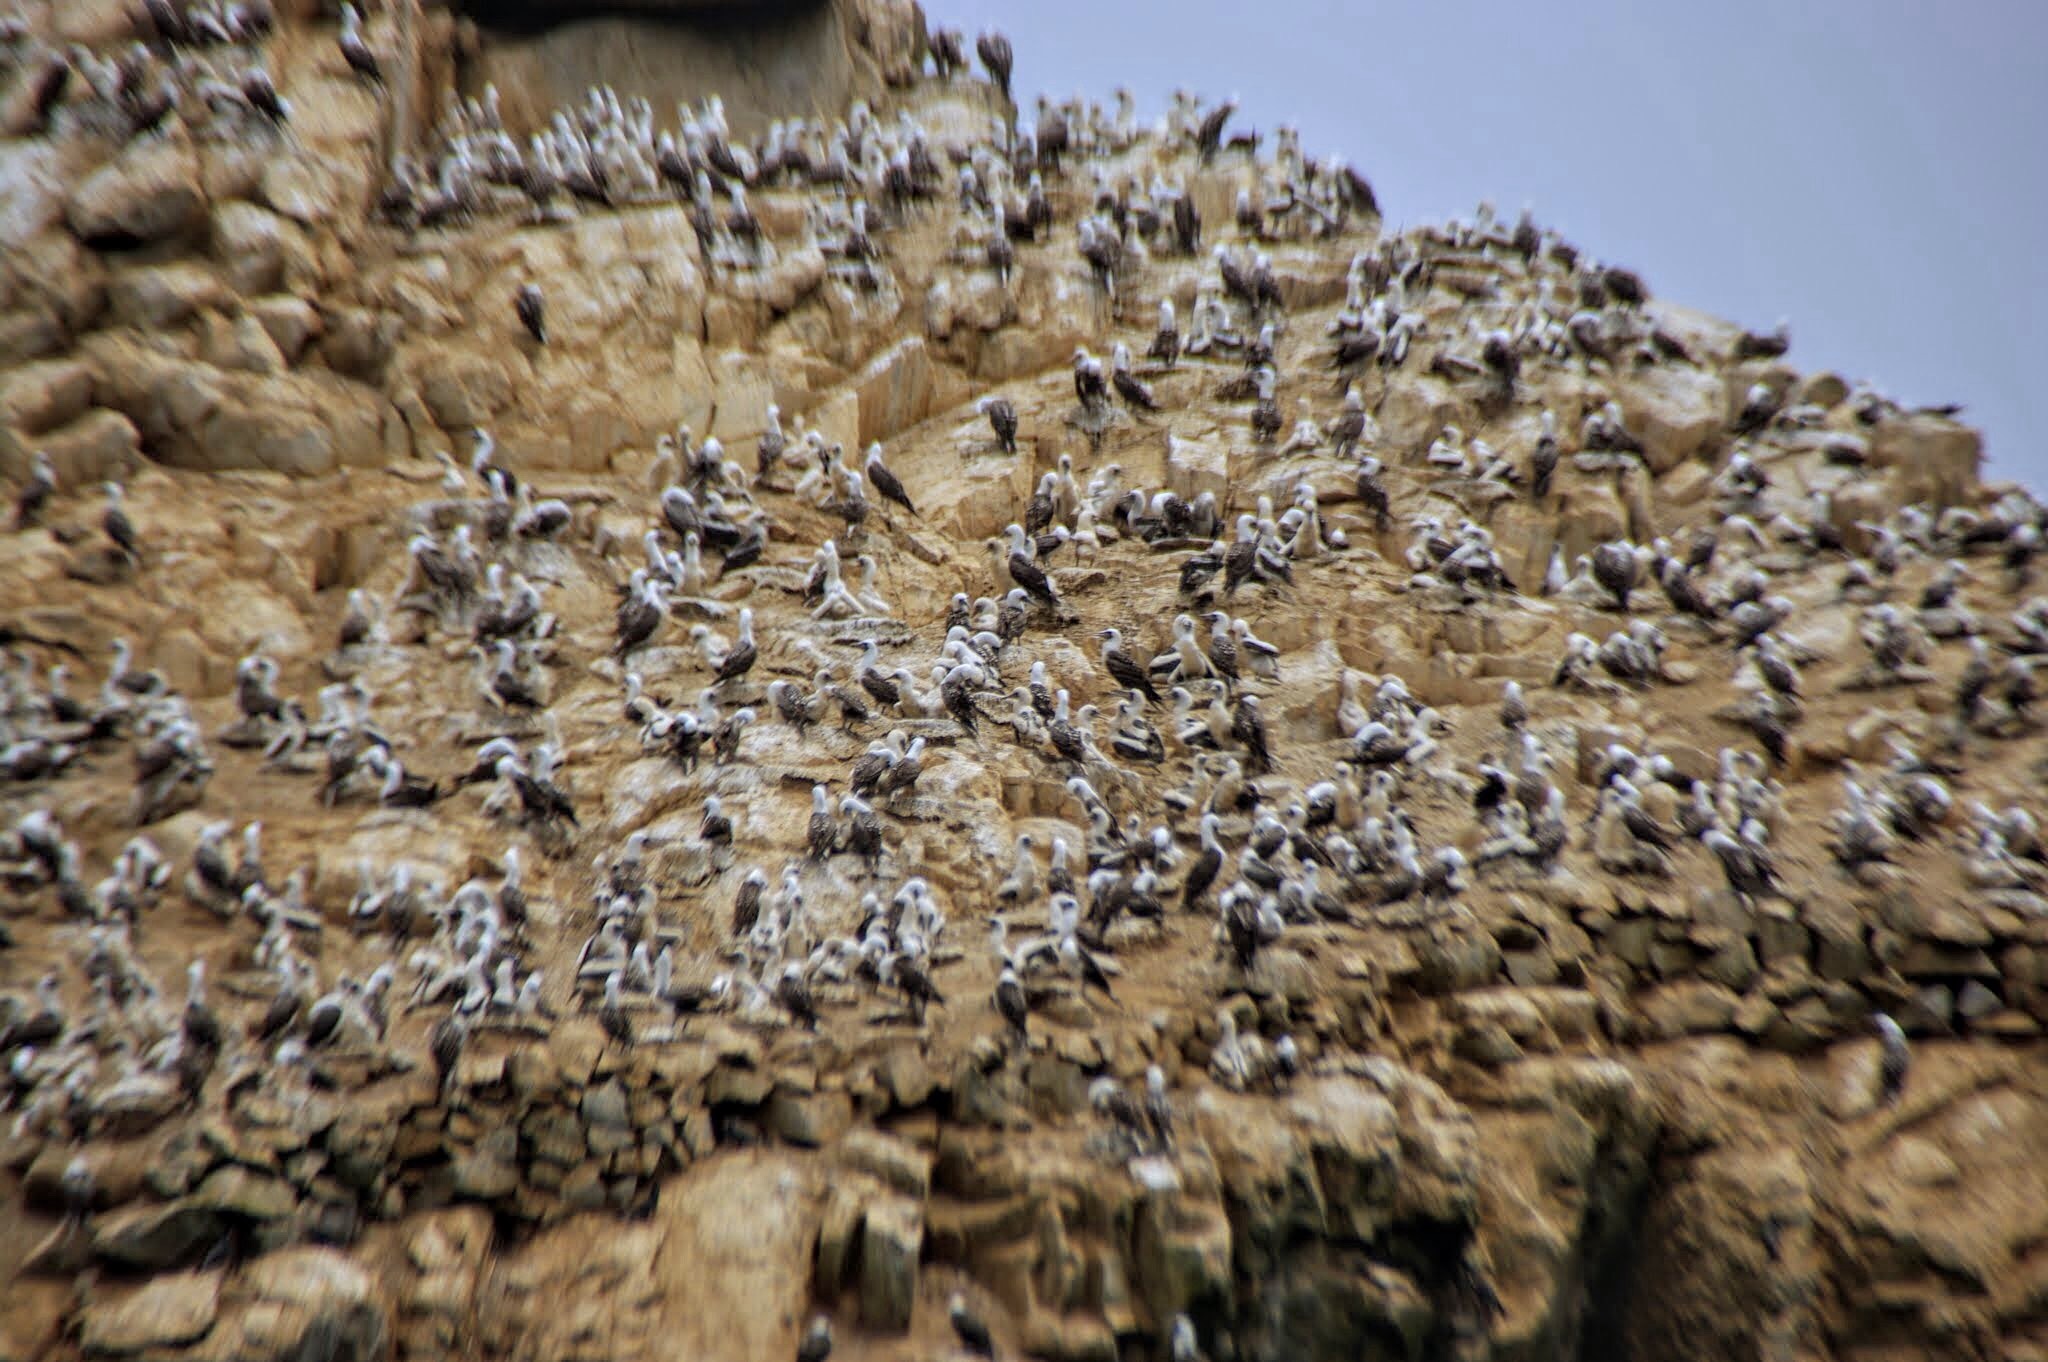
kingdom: Animalia
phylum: Chordata
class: Aves
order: Suliformes
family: Sulidae
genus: Sula
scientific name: Sula variegata
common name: Peruvian booby
